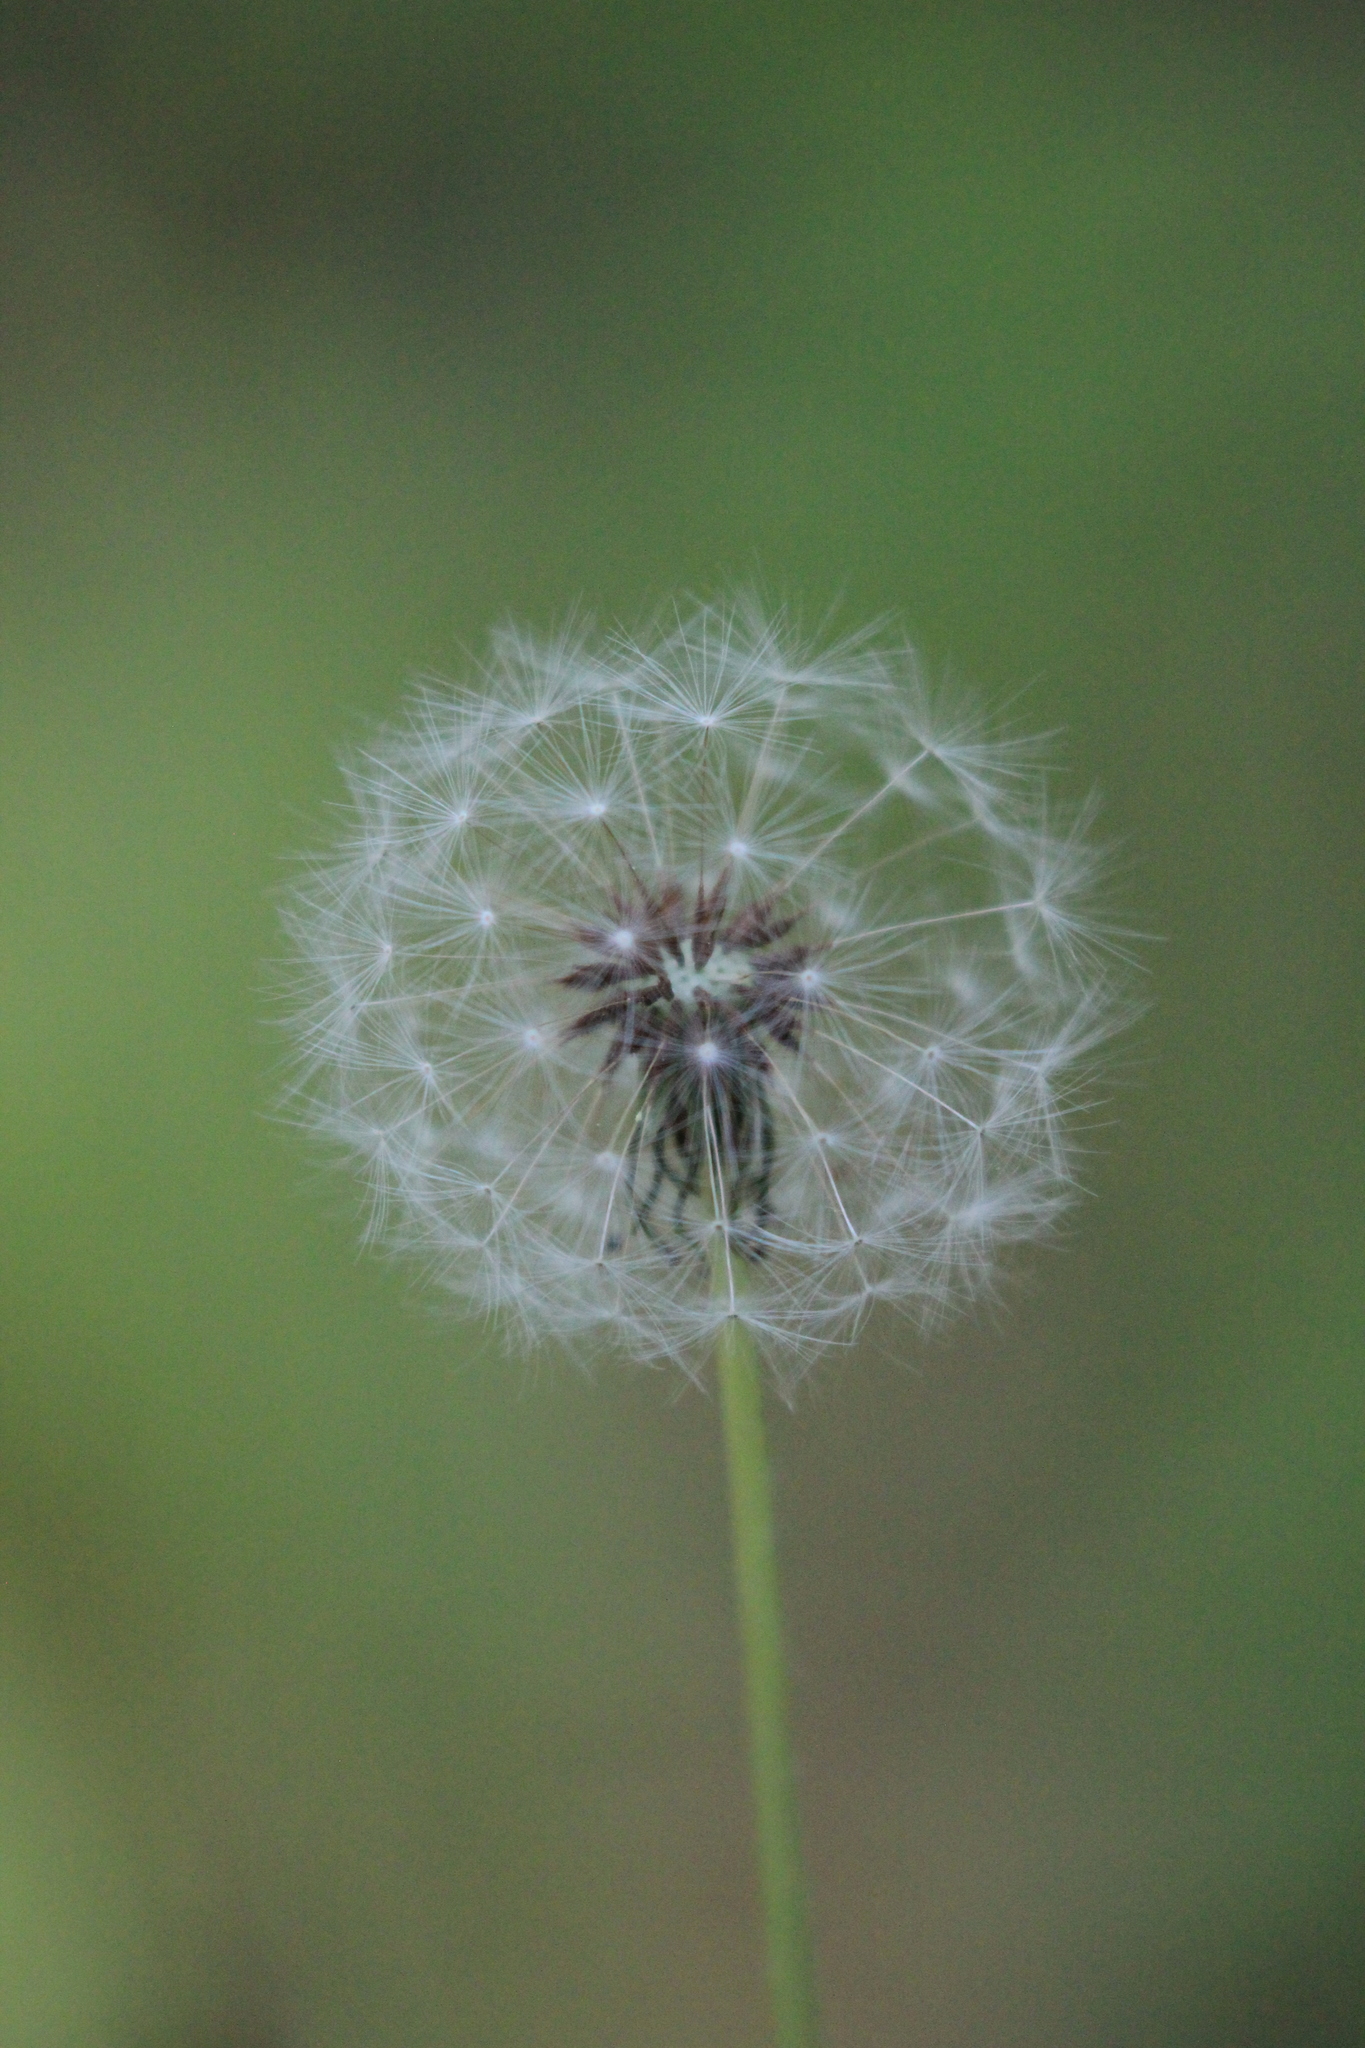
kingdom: Plantae
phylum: Tracheophyta
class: Magnoliopsida
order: Asterales
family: Asteraceae
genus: Taraxacum
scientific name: Taraxacum officinale
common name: Common dandelion
